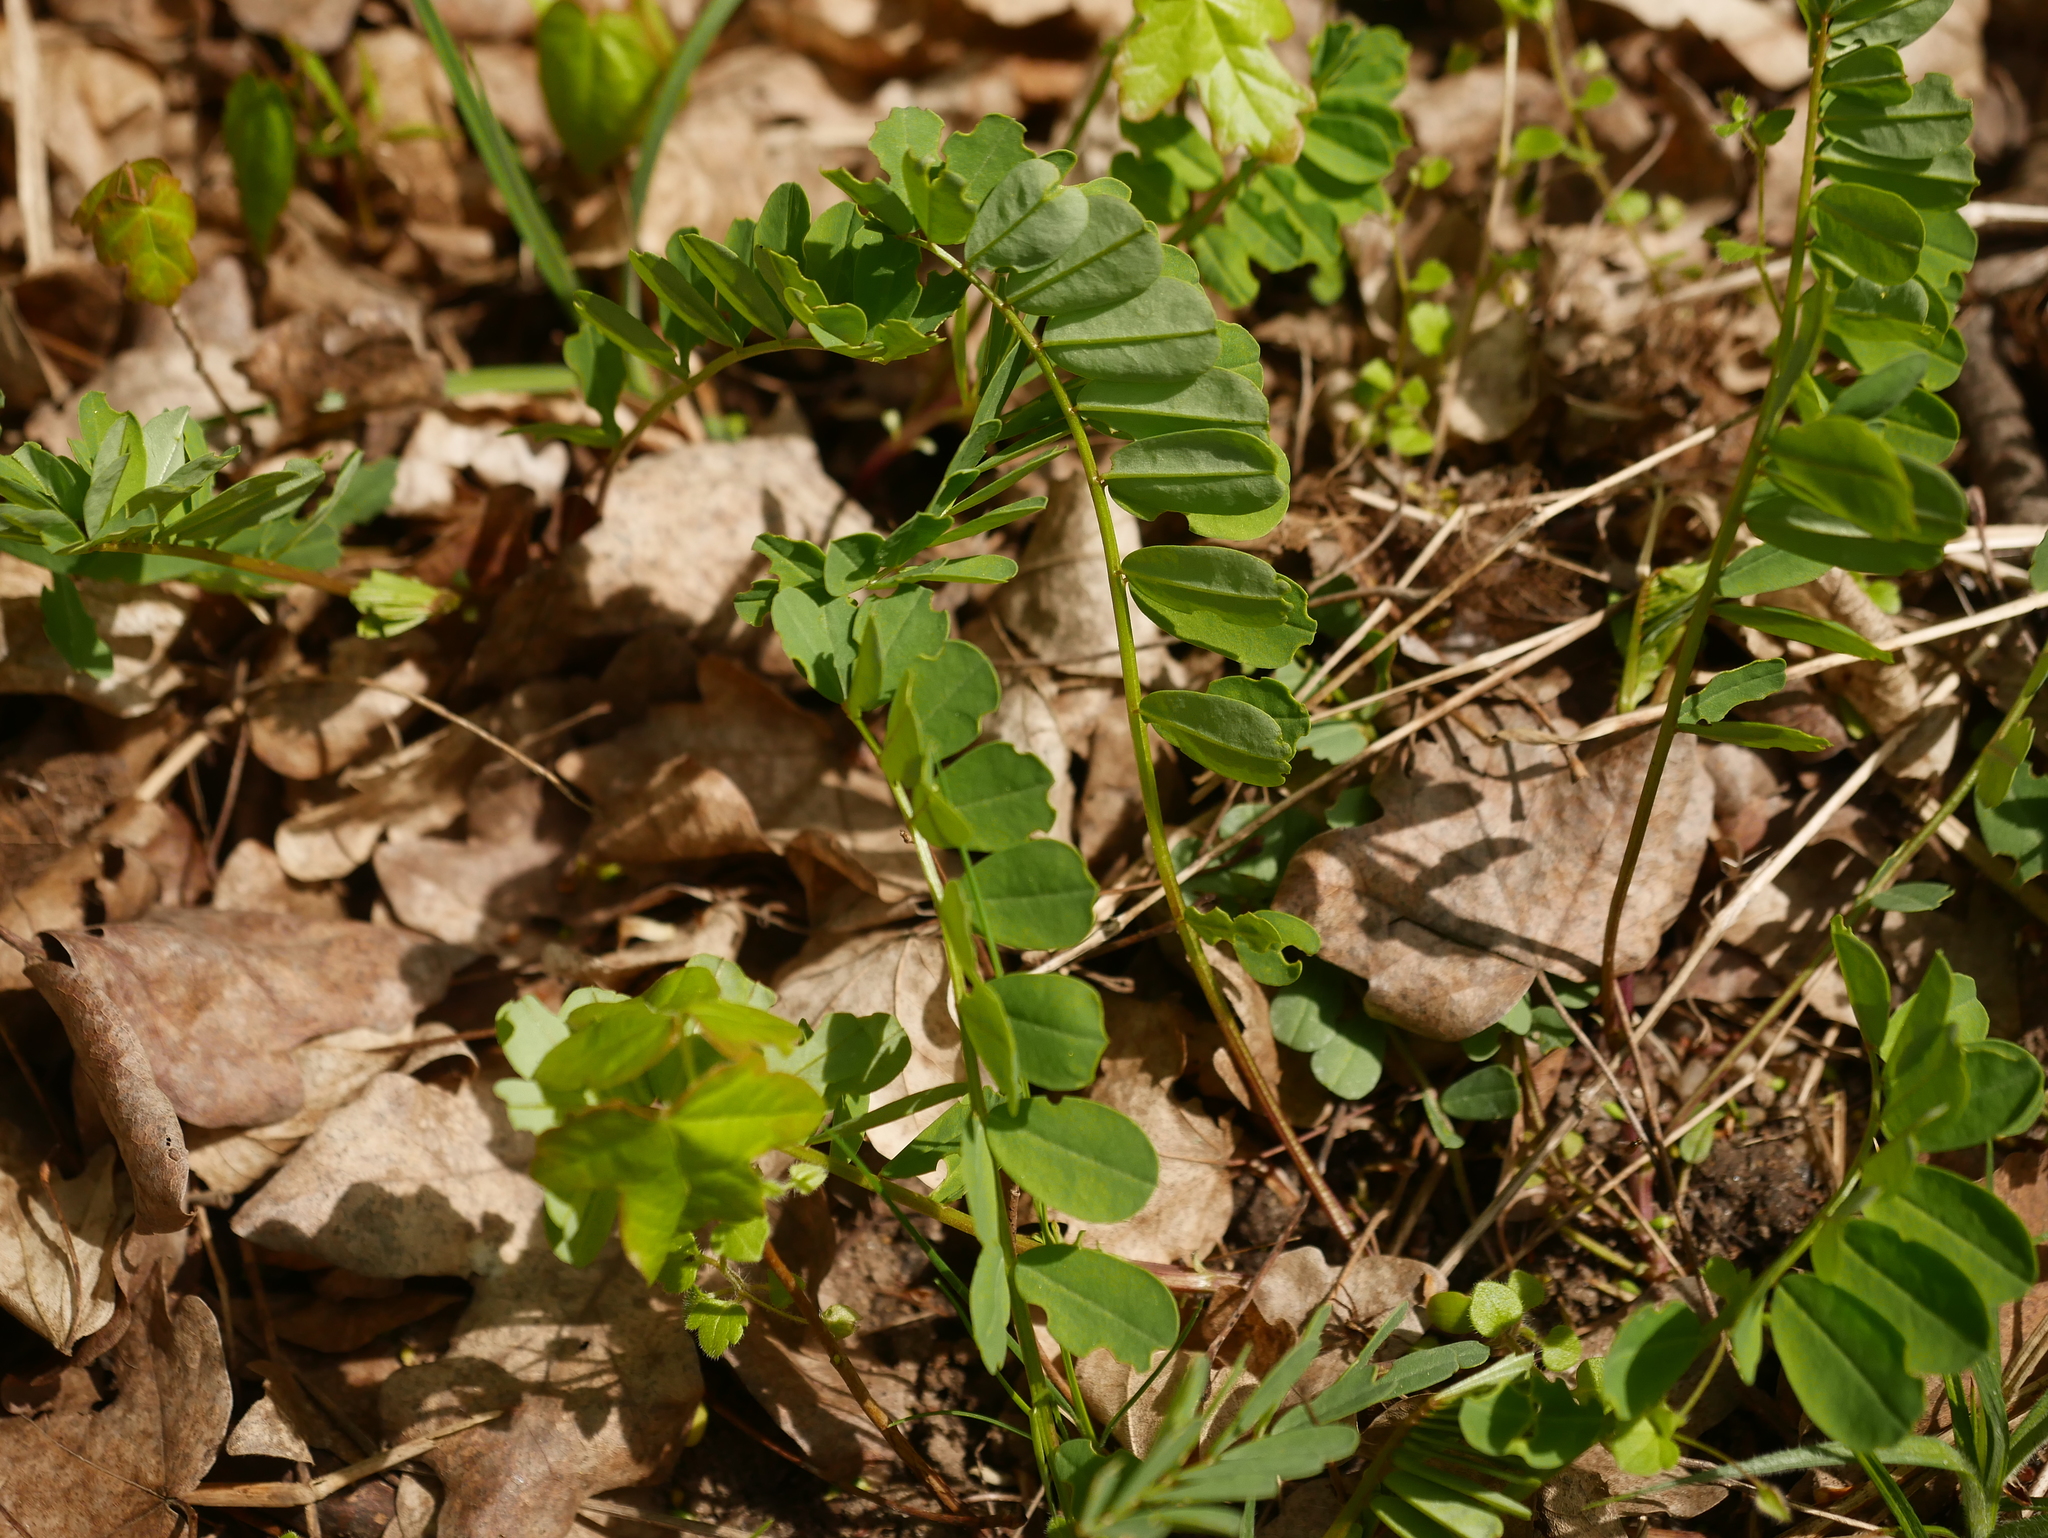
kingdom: Plantae
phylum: Tracheophyta
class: Magnoliopsida
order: Fabales
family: Fabaceae
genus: Coronilla
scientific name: Coronilla varia
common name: Crownvetch
